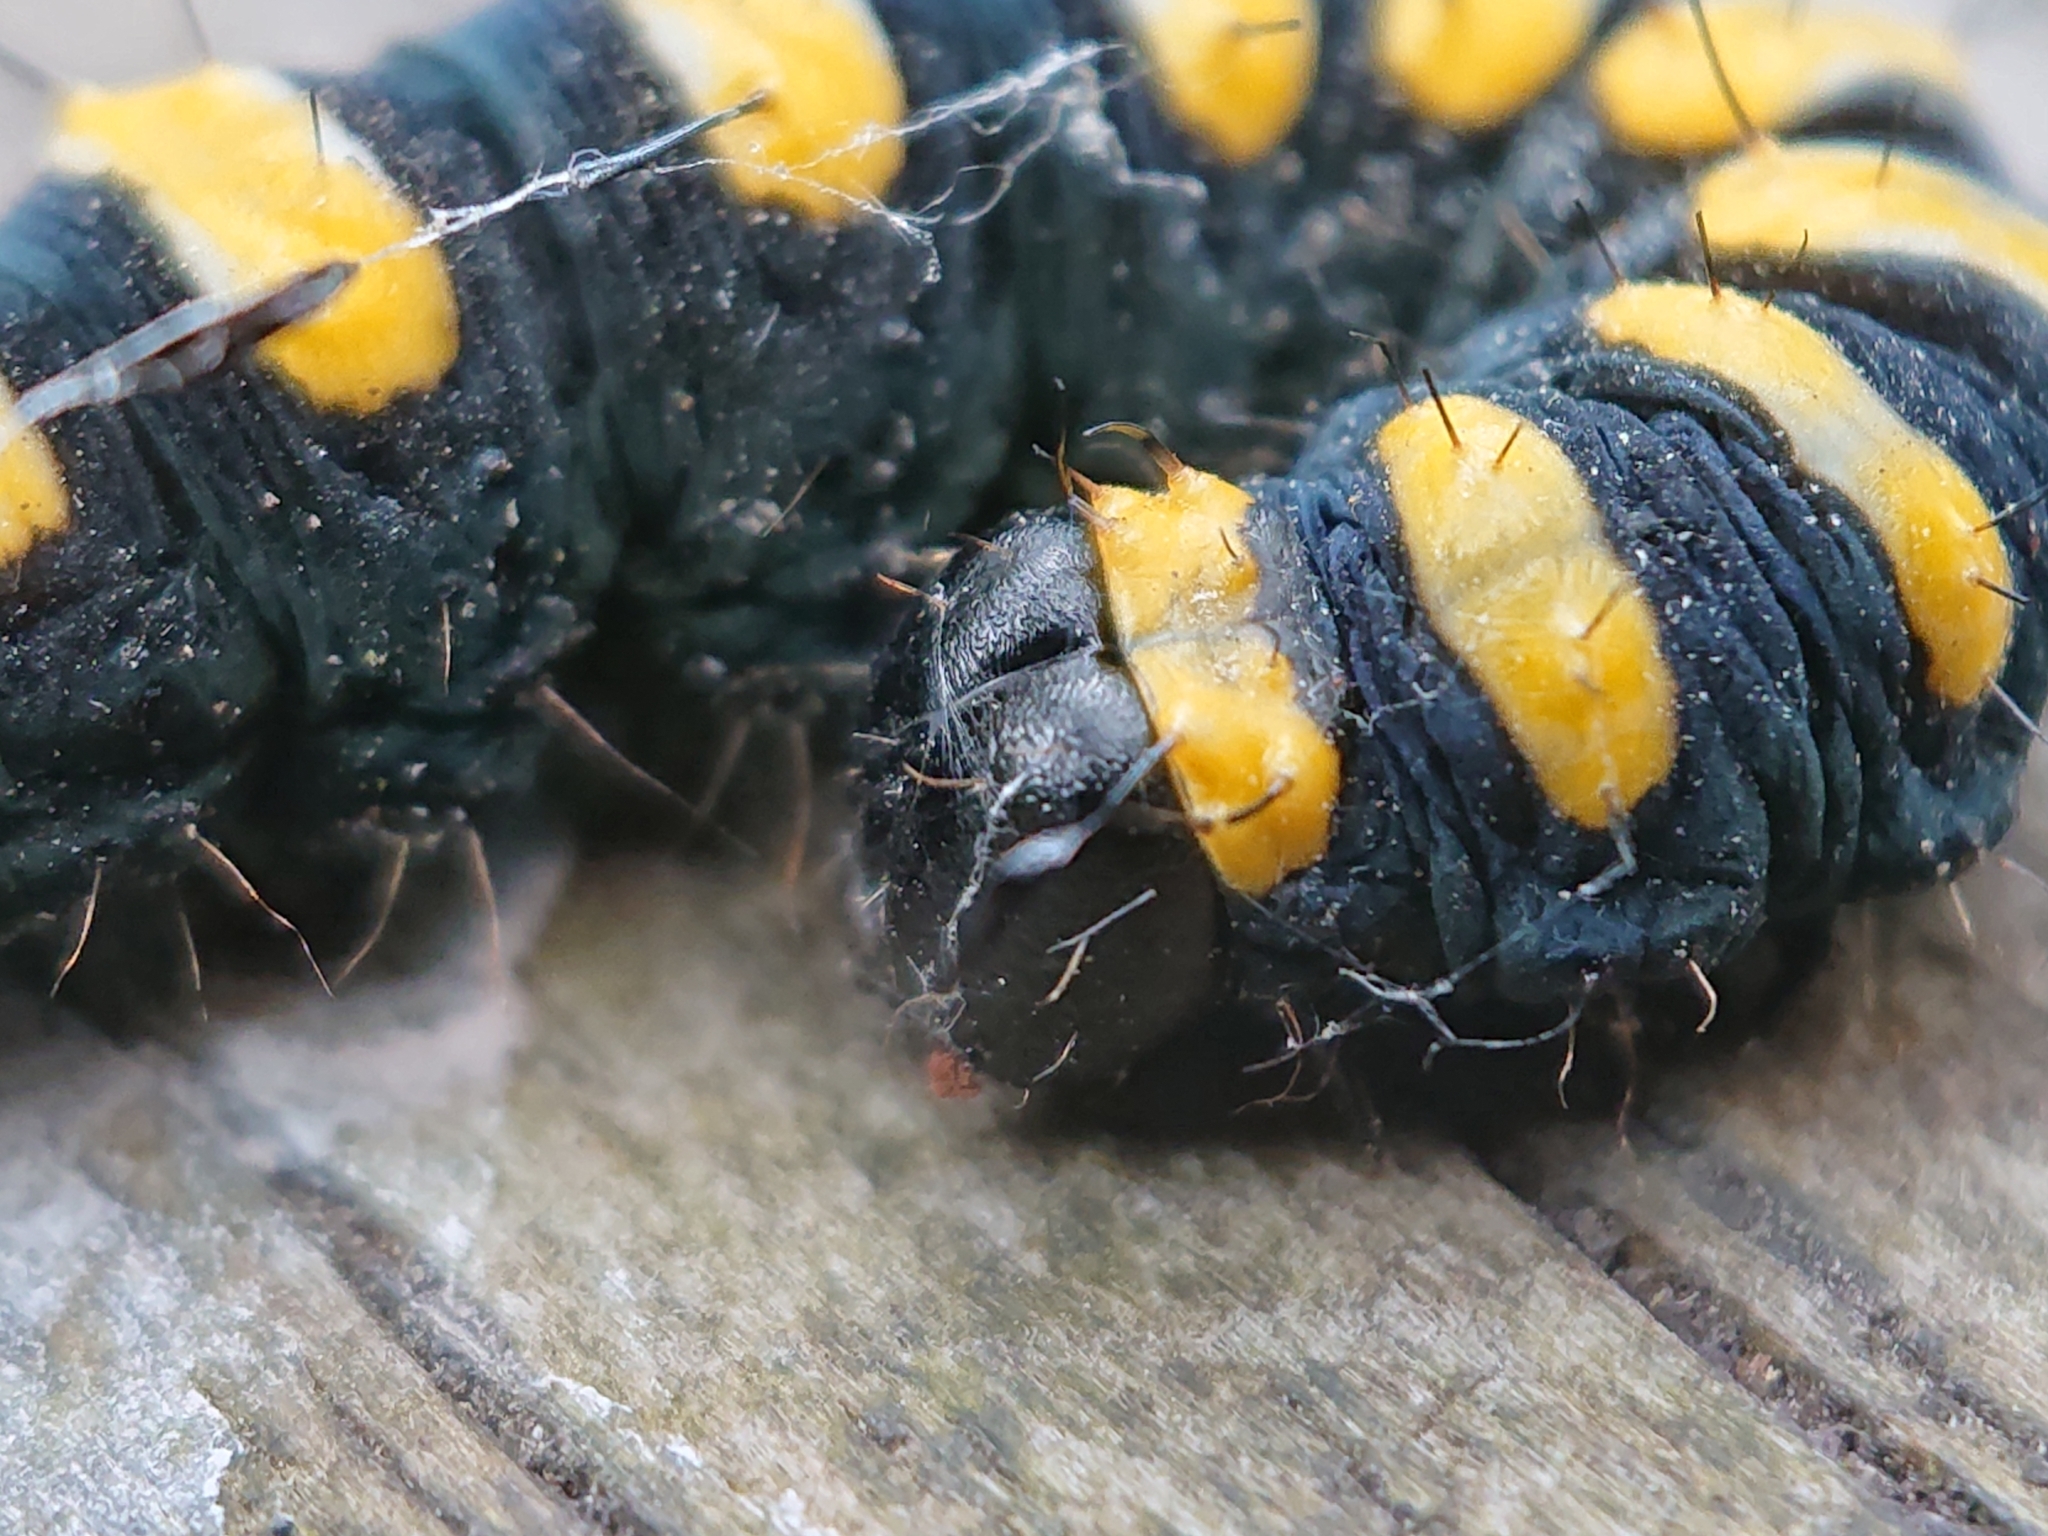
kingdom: Animalia
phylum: Arthropoda
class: Insecta
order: Lepidoptera
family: Noctuidae
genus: Acronicta
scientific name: Acronicta alni
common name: Alder moth
